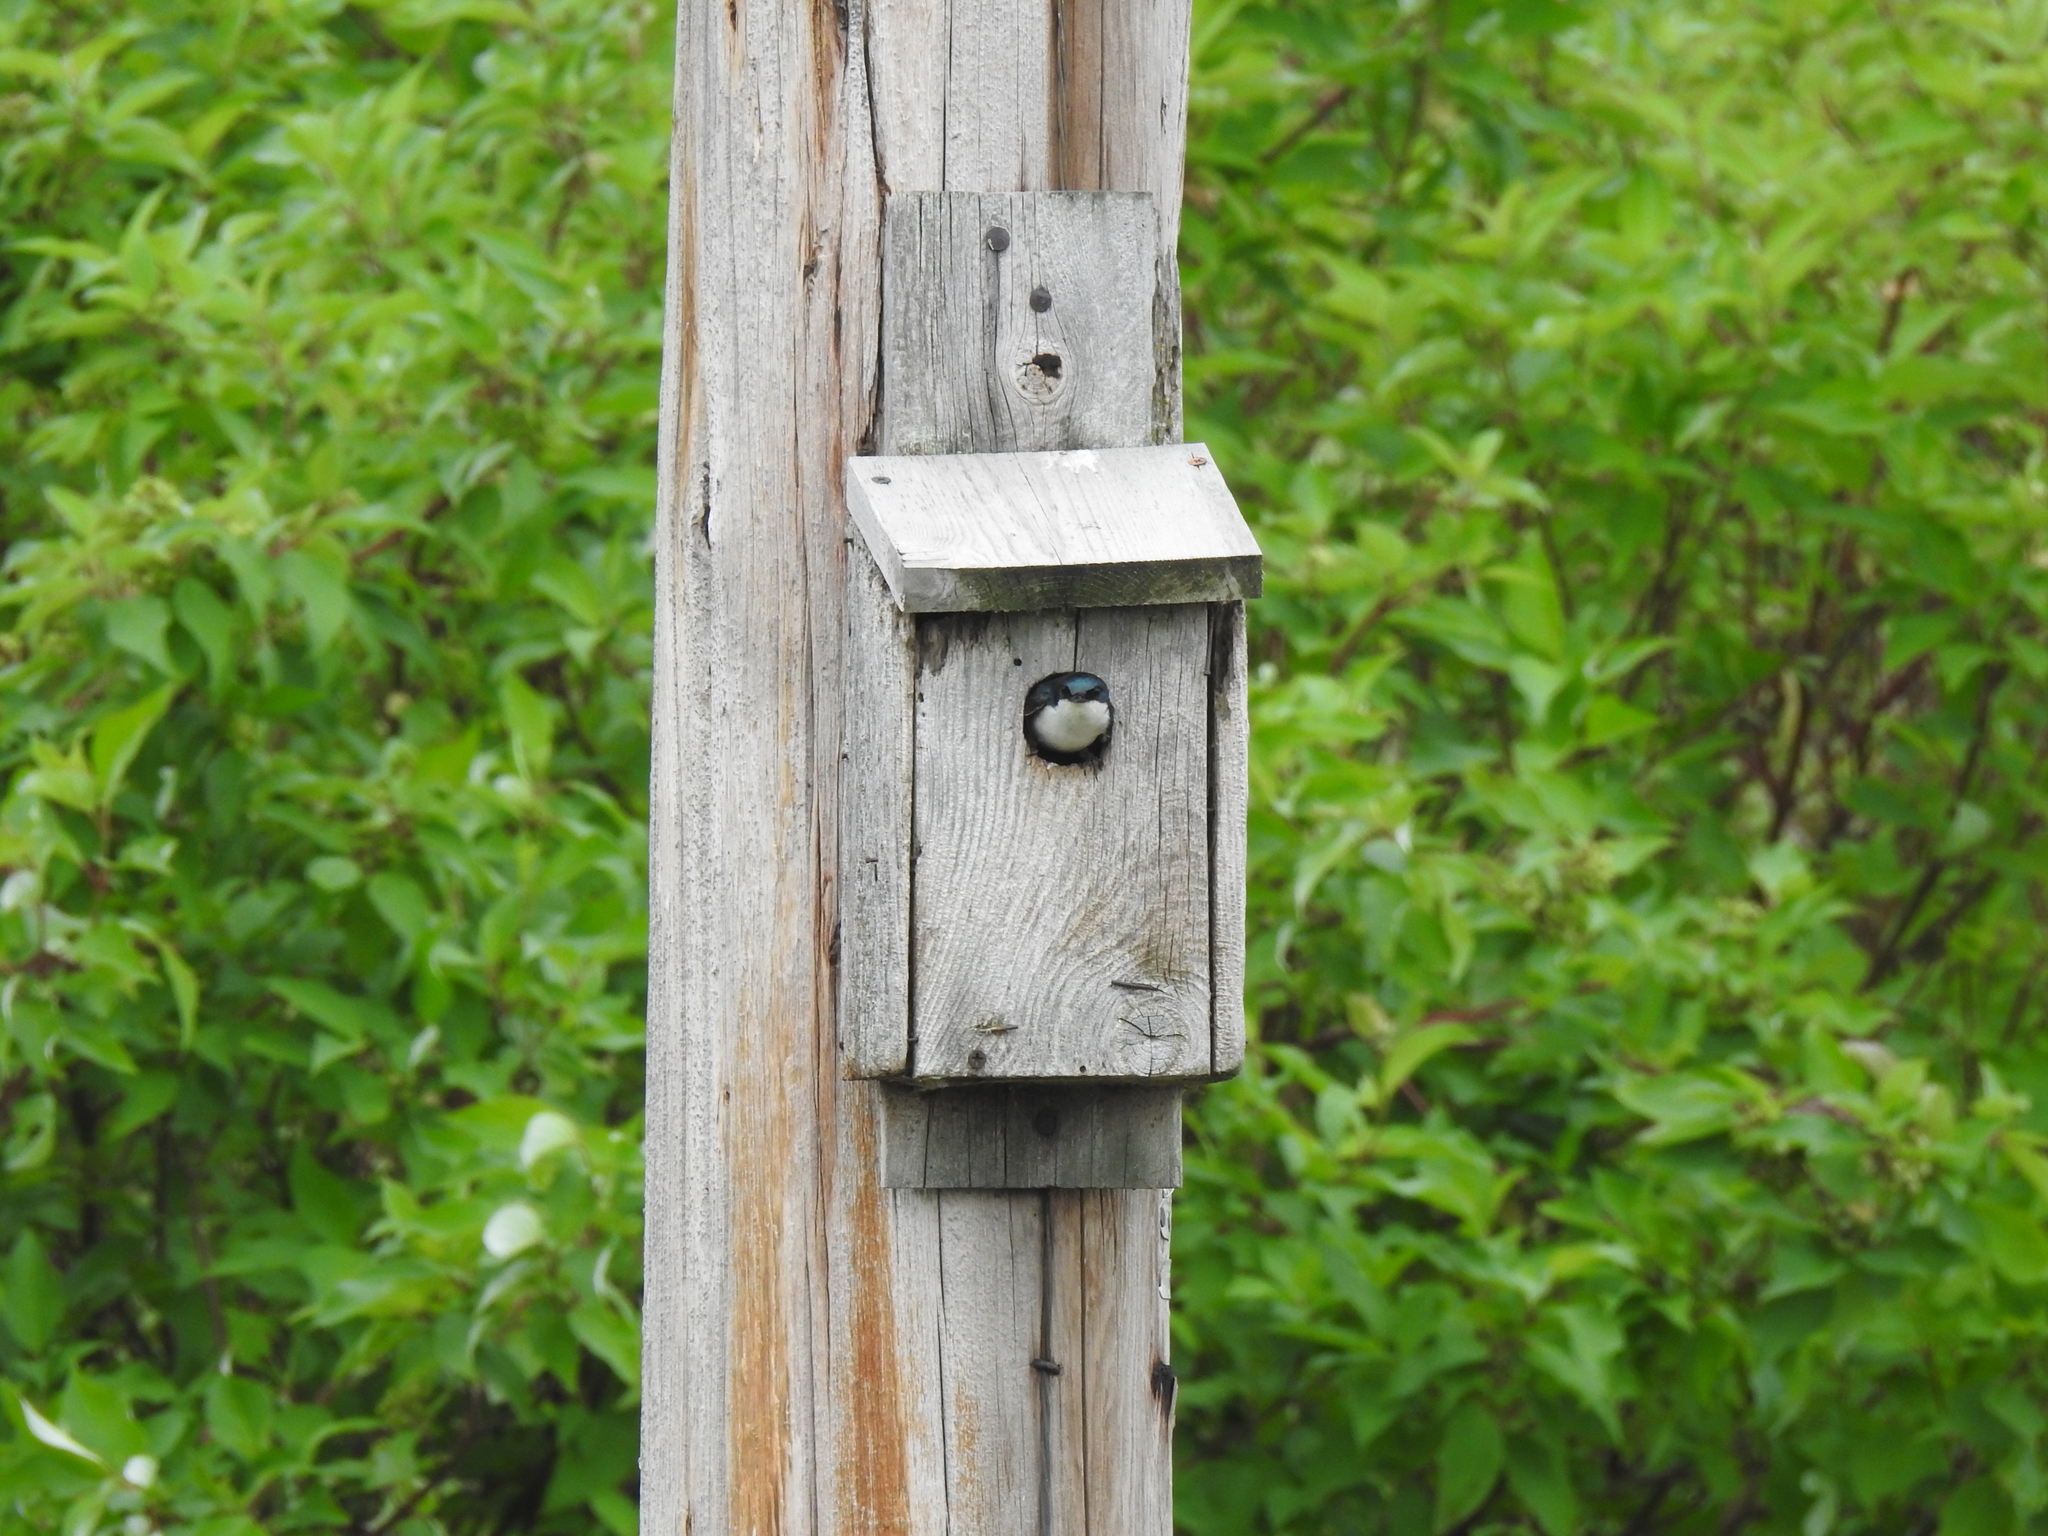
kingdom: Animalia
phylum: Chordata
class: Aves
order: Passeriformes
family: Hirundinidae
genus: Tachycineta
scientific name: Tachycineta bicolor
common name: Tree swallow
